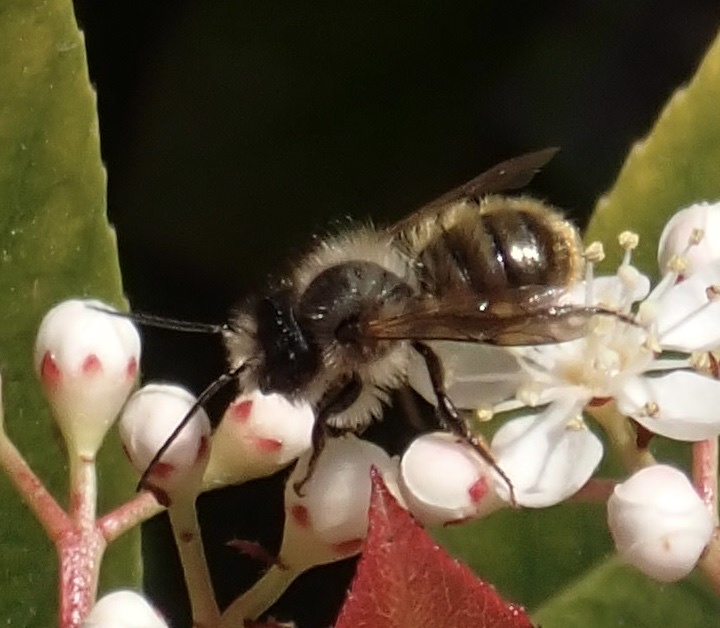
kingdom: Animalia
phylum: Arthropoda
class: Insecta
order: Hymenoptera
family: Megachilidae
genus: Osmia
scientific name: Osmia bicornis
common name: Red mason bee
